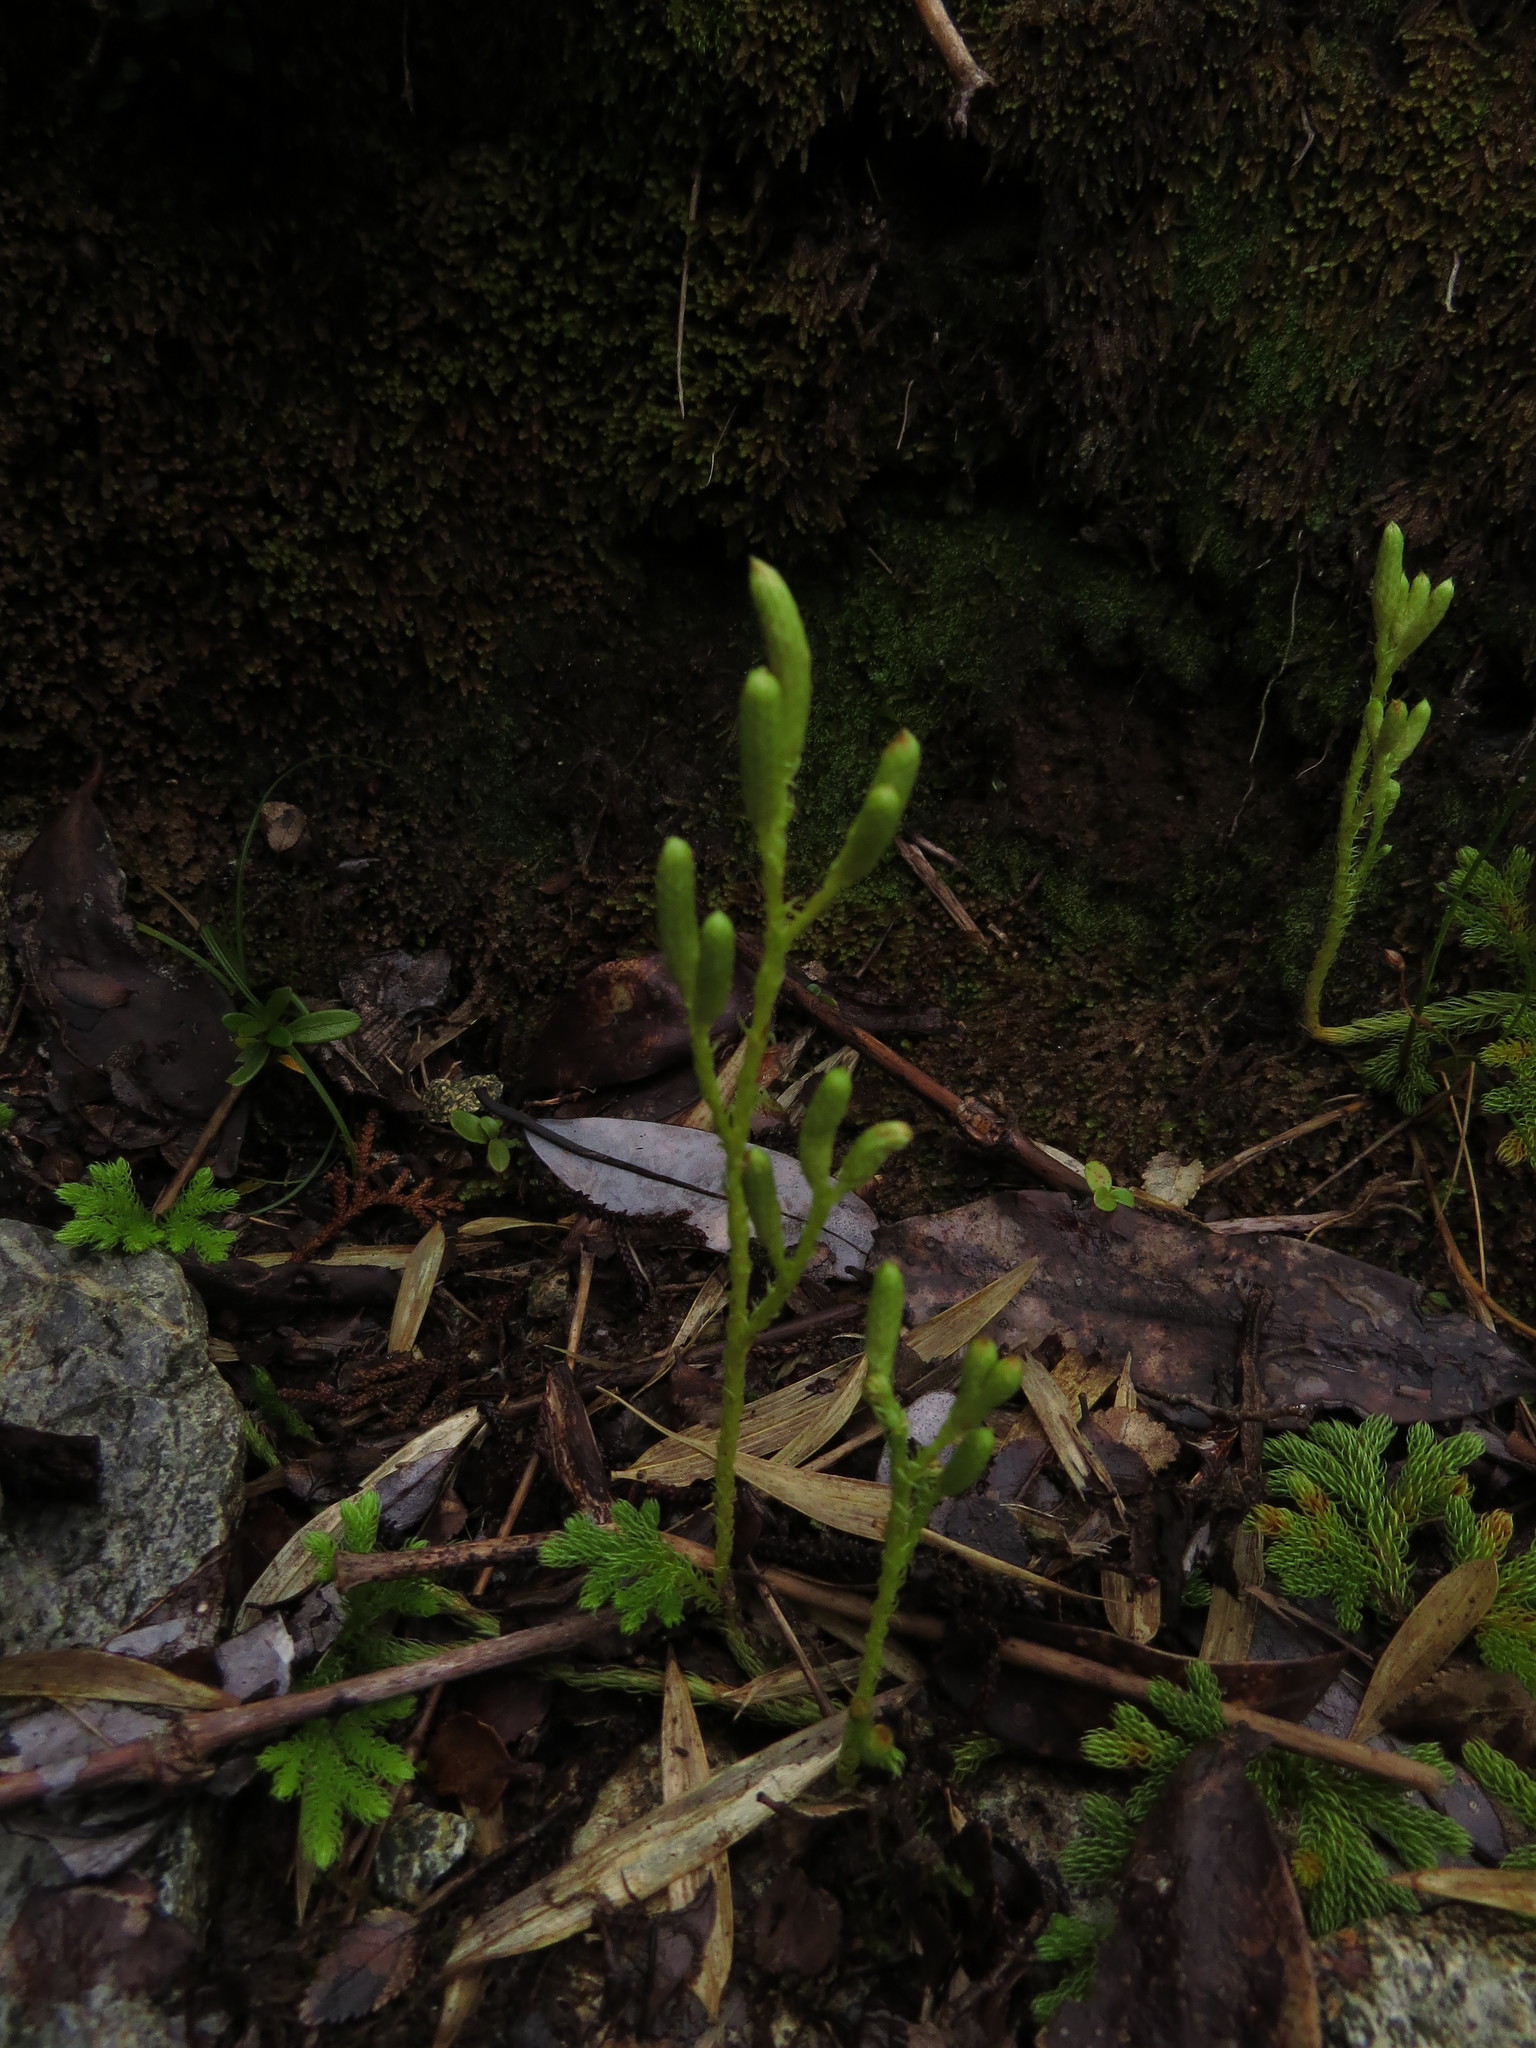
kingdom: Plantae
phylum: Tracheophyta
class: Lycopodiopsida
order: Lycopodiales
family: Lycopodiaceae
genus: Austrolycopodium
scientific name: Austrolycopodium paniculatum
